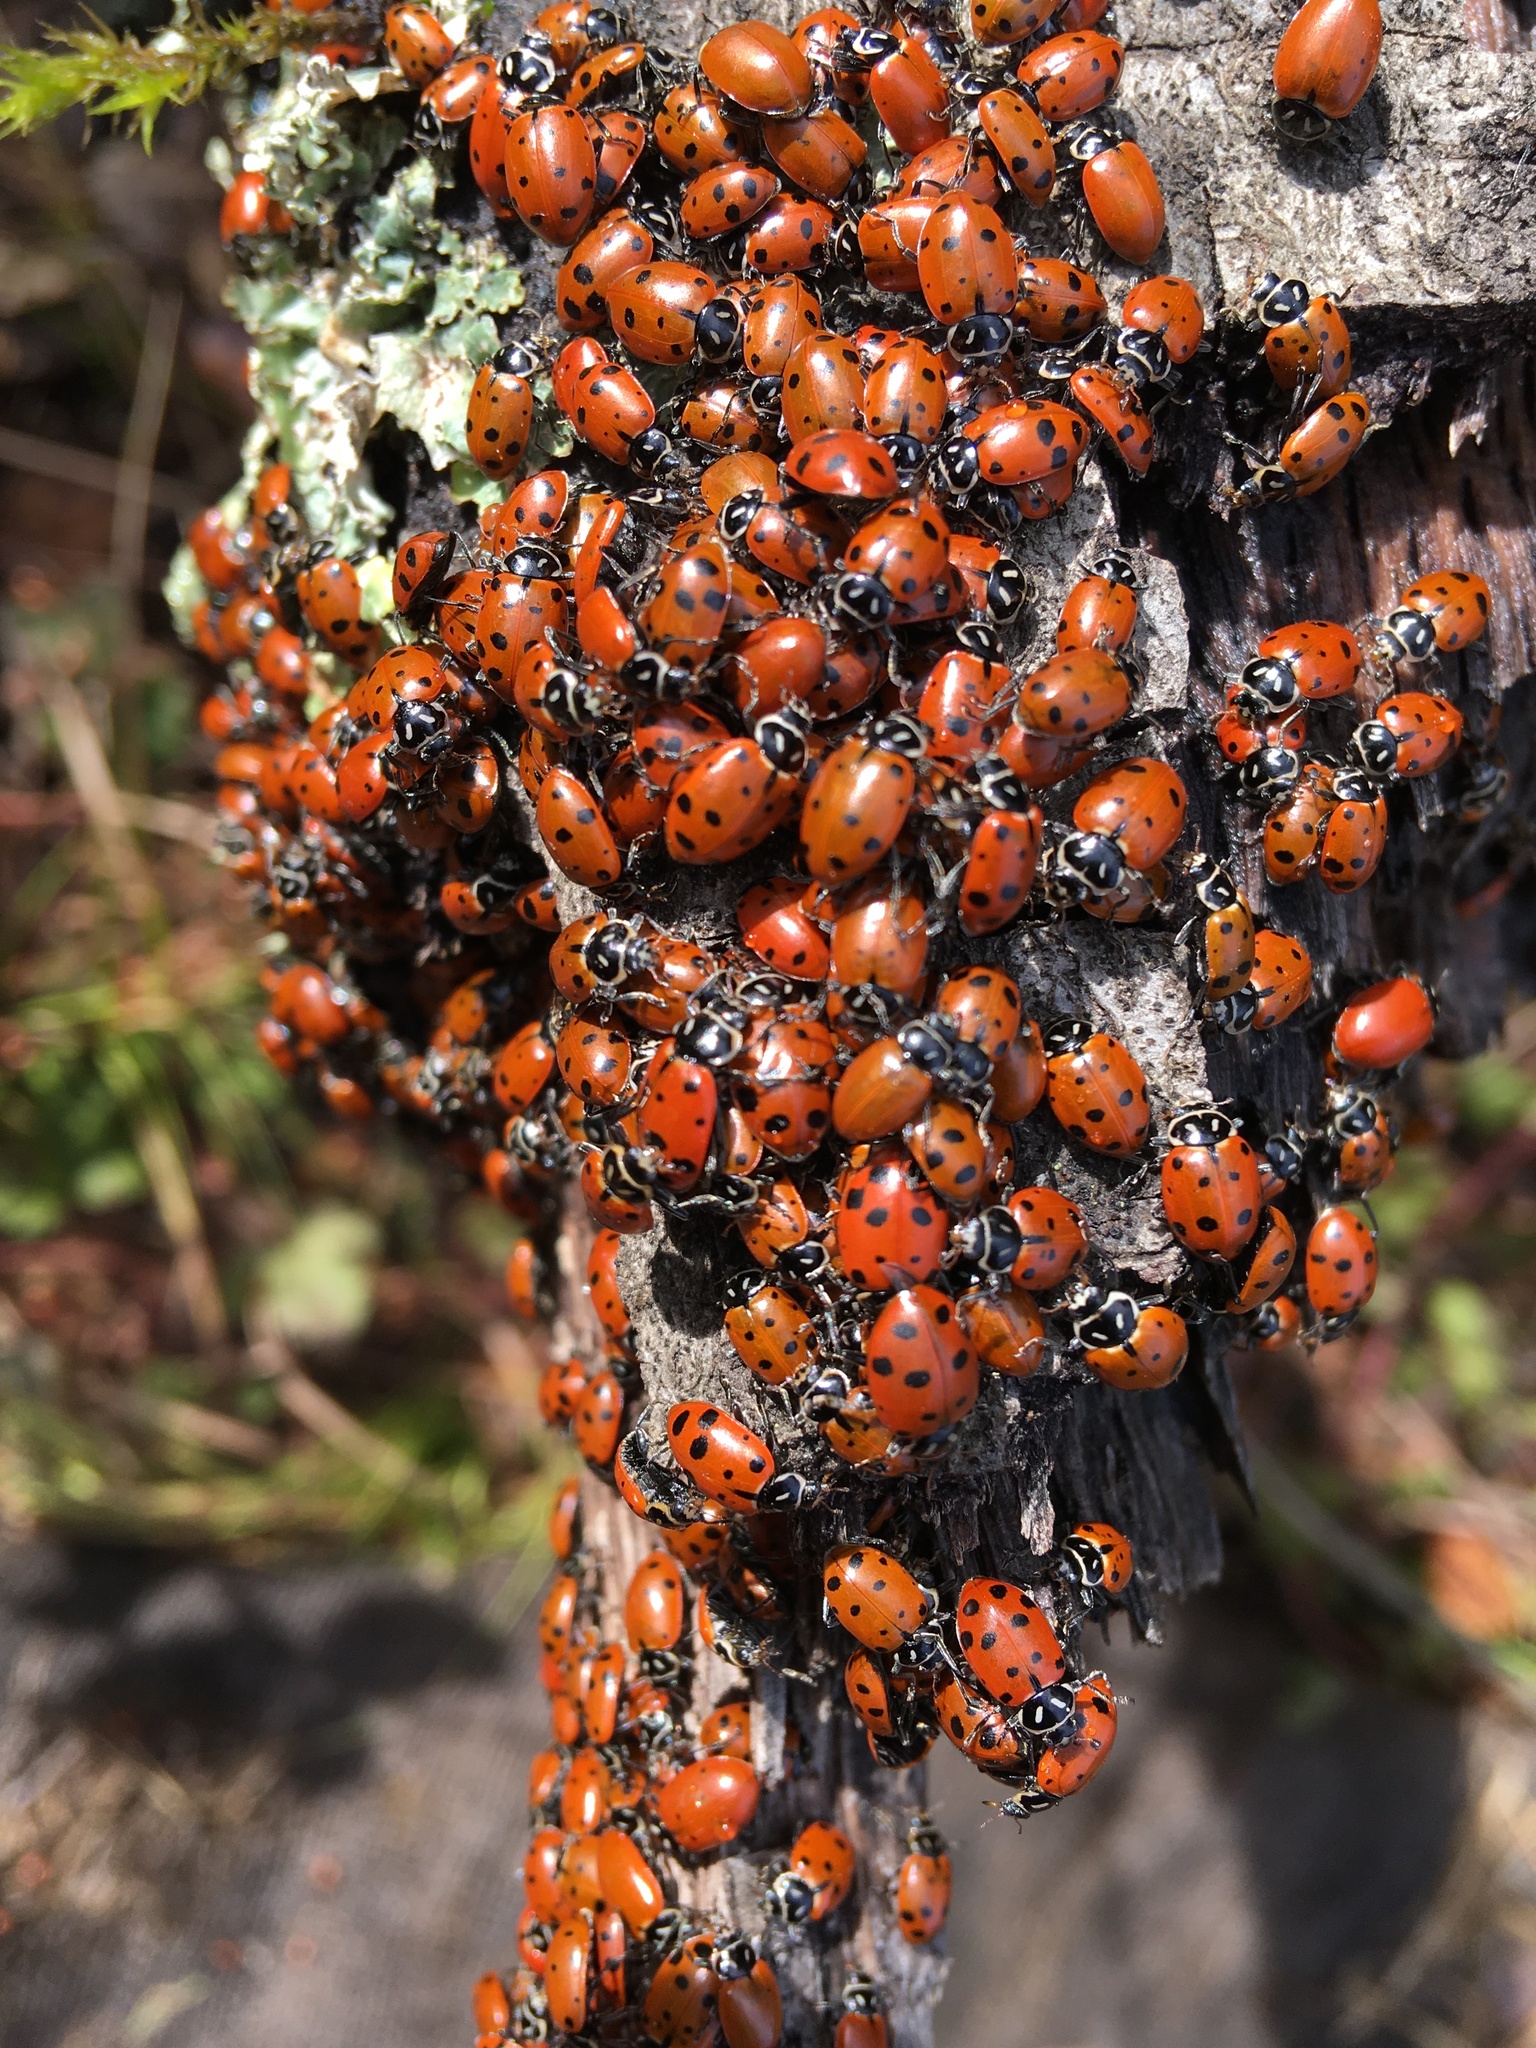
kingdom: Animalia
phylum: Arthropoda
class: Insecta
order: Coleoptera
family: Coccinellidae
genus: Hippodamia
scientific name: Hippodamia convergens
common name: Convergent lady beetle
